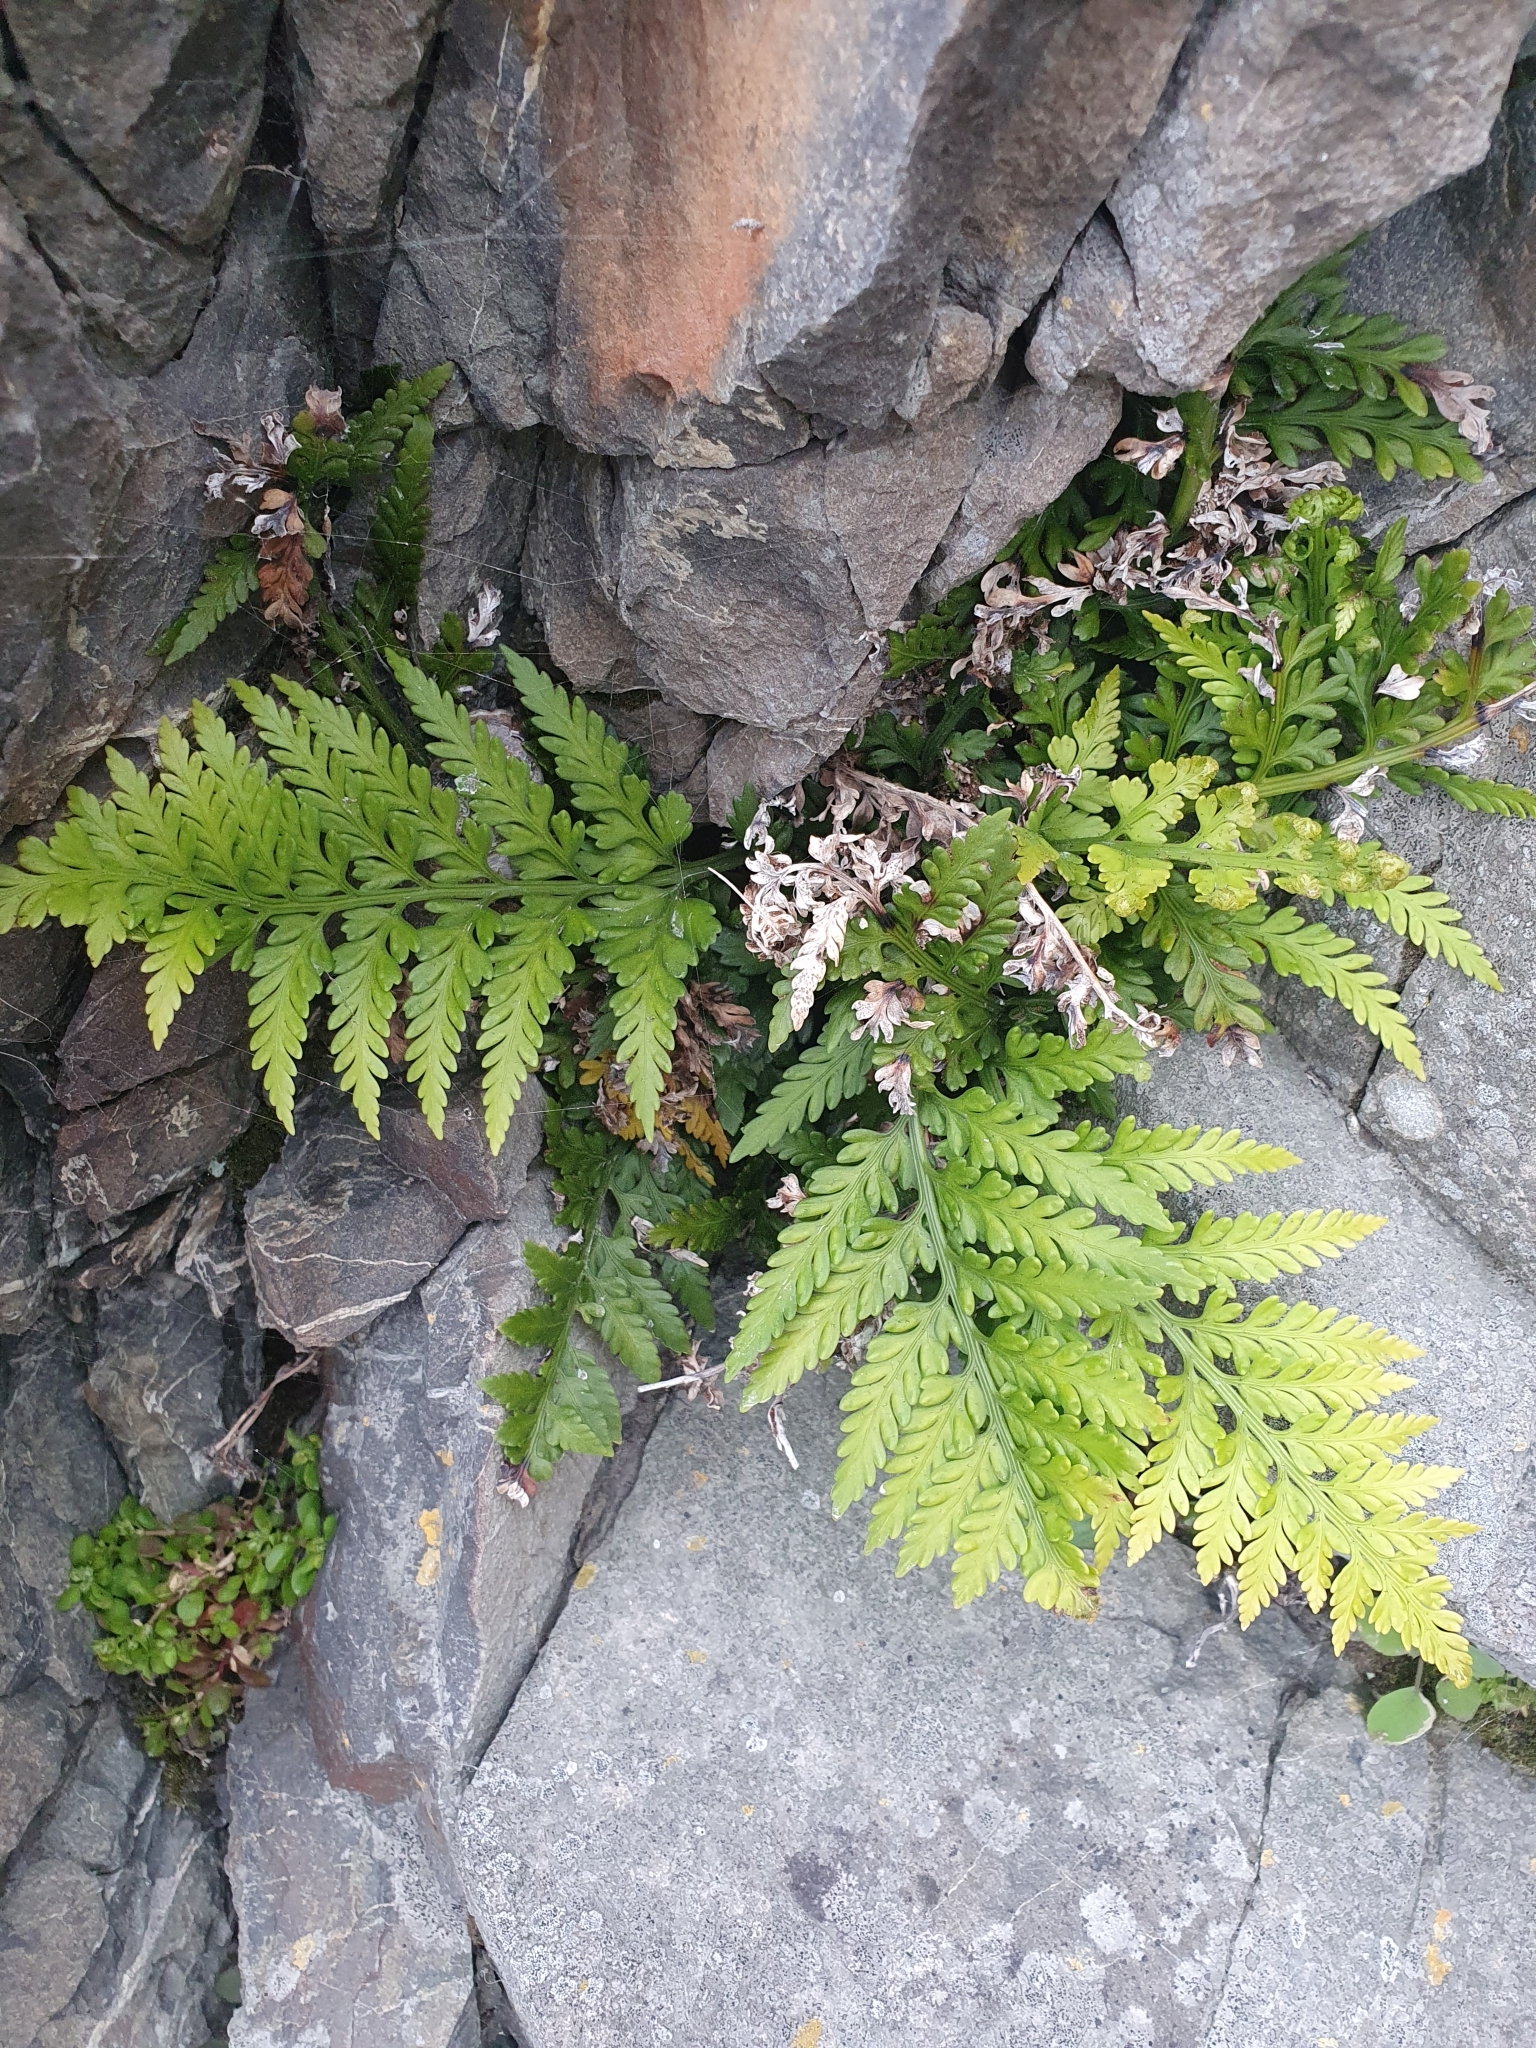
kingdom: Plantae
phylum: Tracheophyta
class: Polypodiopsida
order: Polypodiales
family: Aspleniaceae
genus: Asplenium
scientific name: Asplenium appendiculatum
